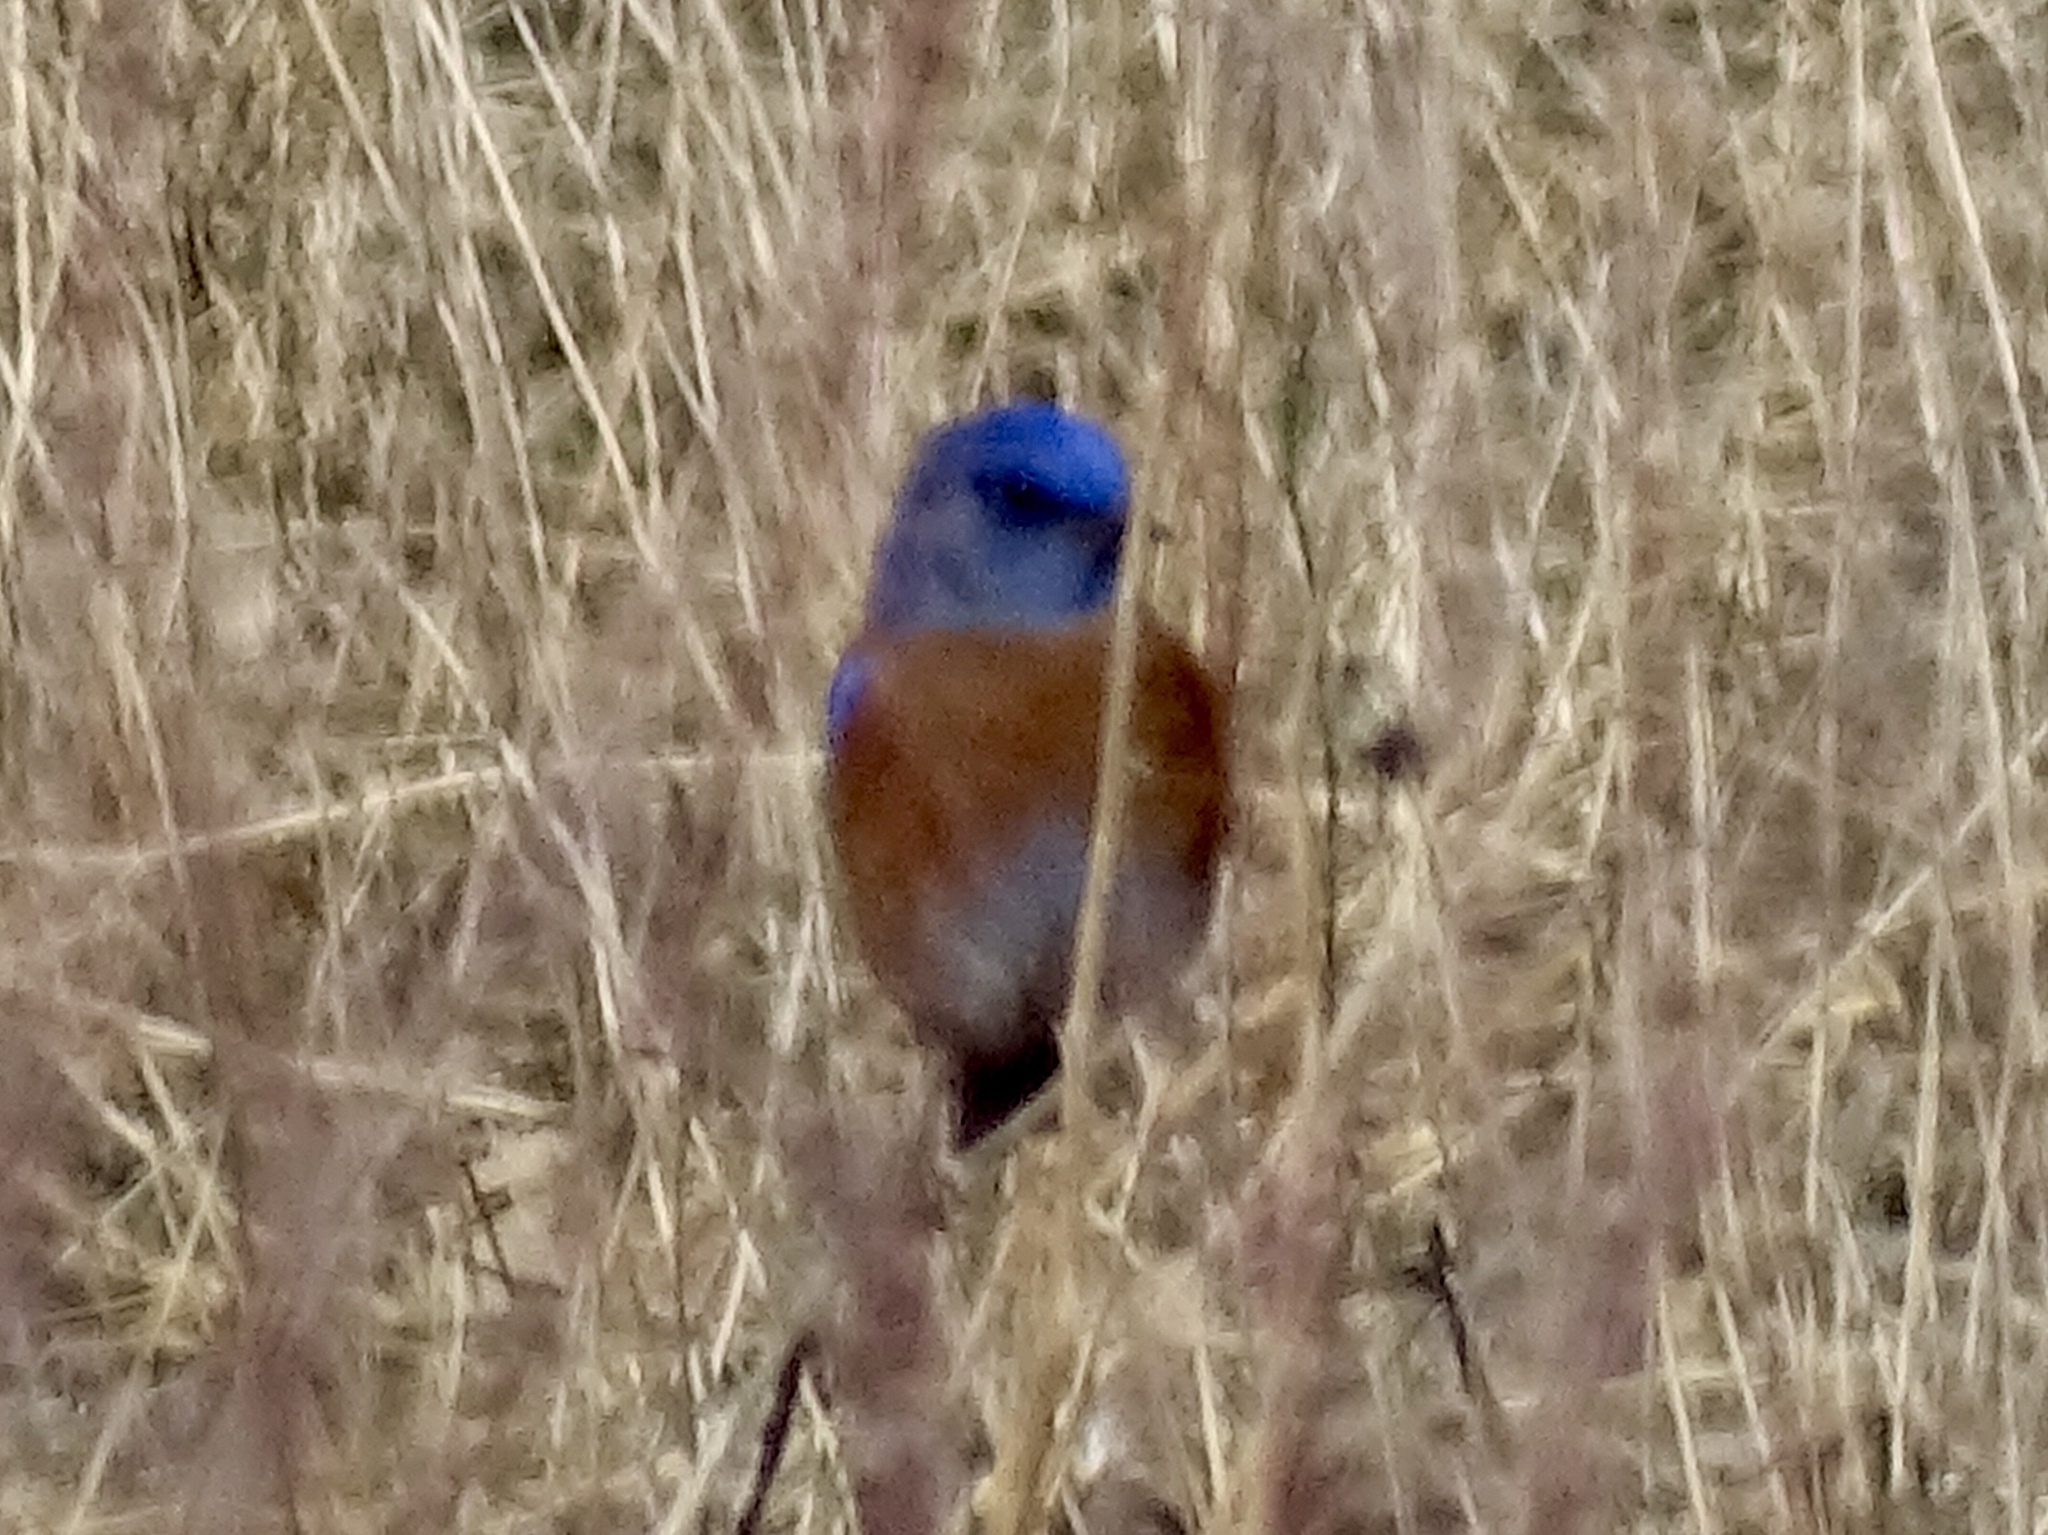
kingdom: Animalia
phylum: Chordata
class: Aves
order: Passeriformes
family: Turdidae
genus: Sialia
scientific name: Sialia mexicana
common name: Western bluebird
